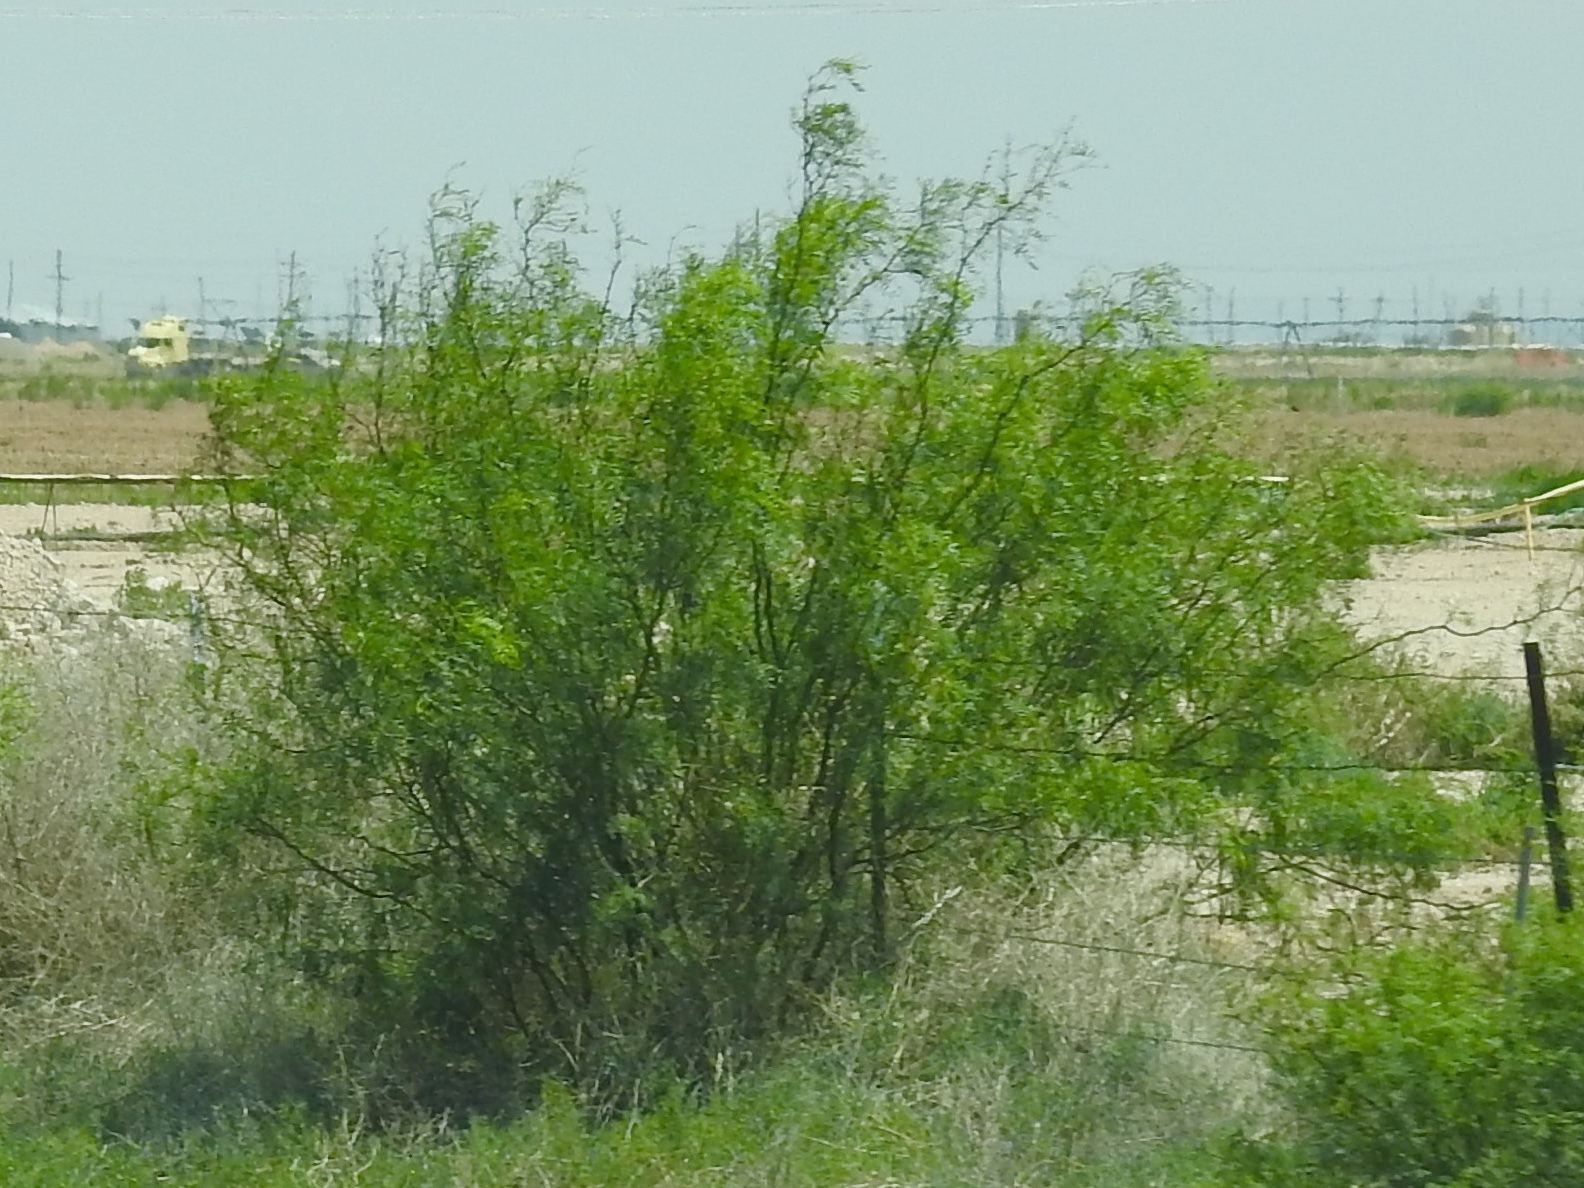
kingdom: Plantae
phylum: Tracheophyta
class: Magnoliopsida
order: Fabales
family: Fabaceae
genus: Prosopis
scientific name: Prosopis glandulosa
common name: Honey mesquite
